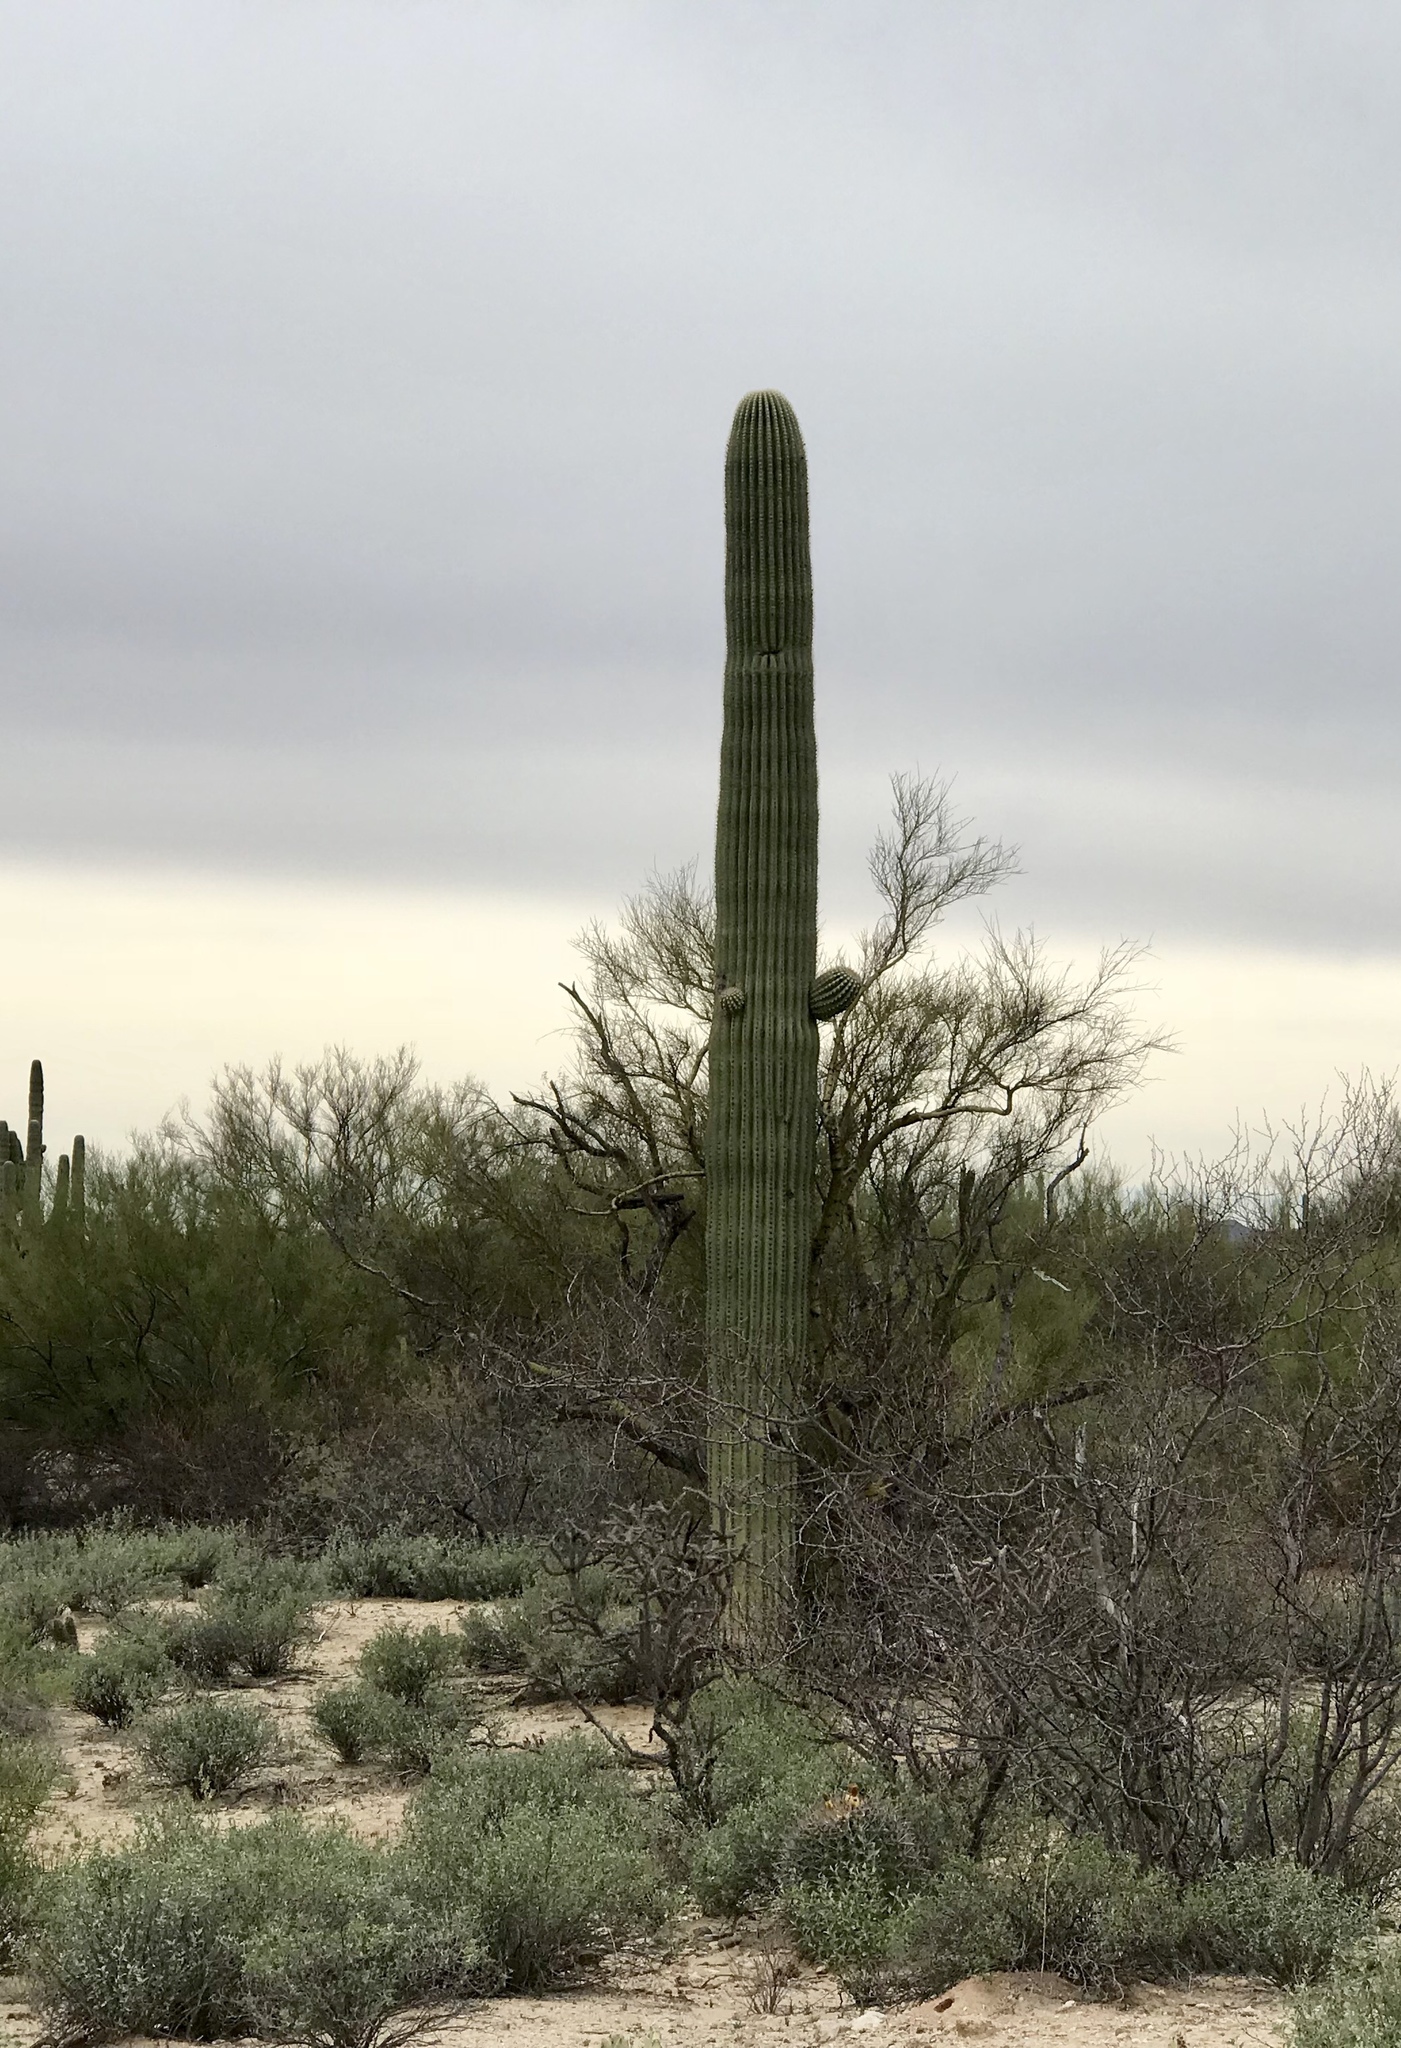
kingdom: Plantae
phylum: Tracheophyta
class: Magnoliopsida
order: Caryophyllales
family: Cactaceae
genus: Carnegiea
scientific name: Carnegiea gigantea
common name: Saguaro
